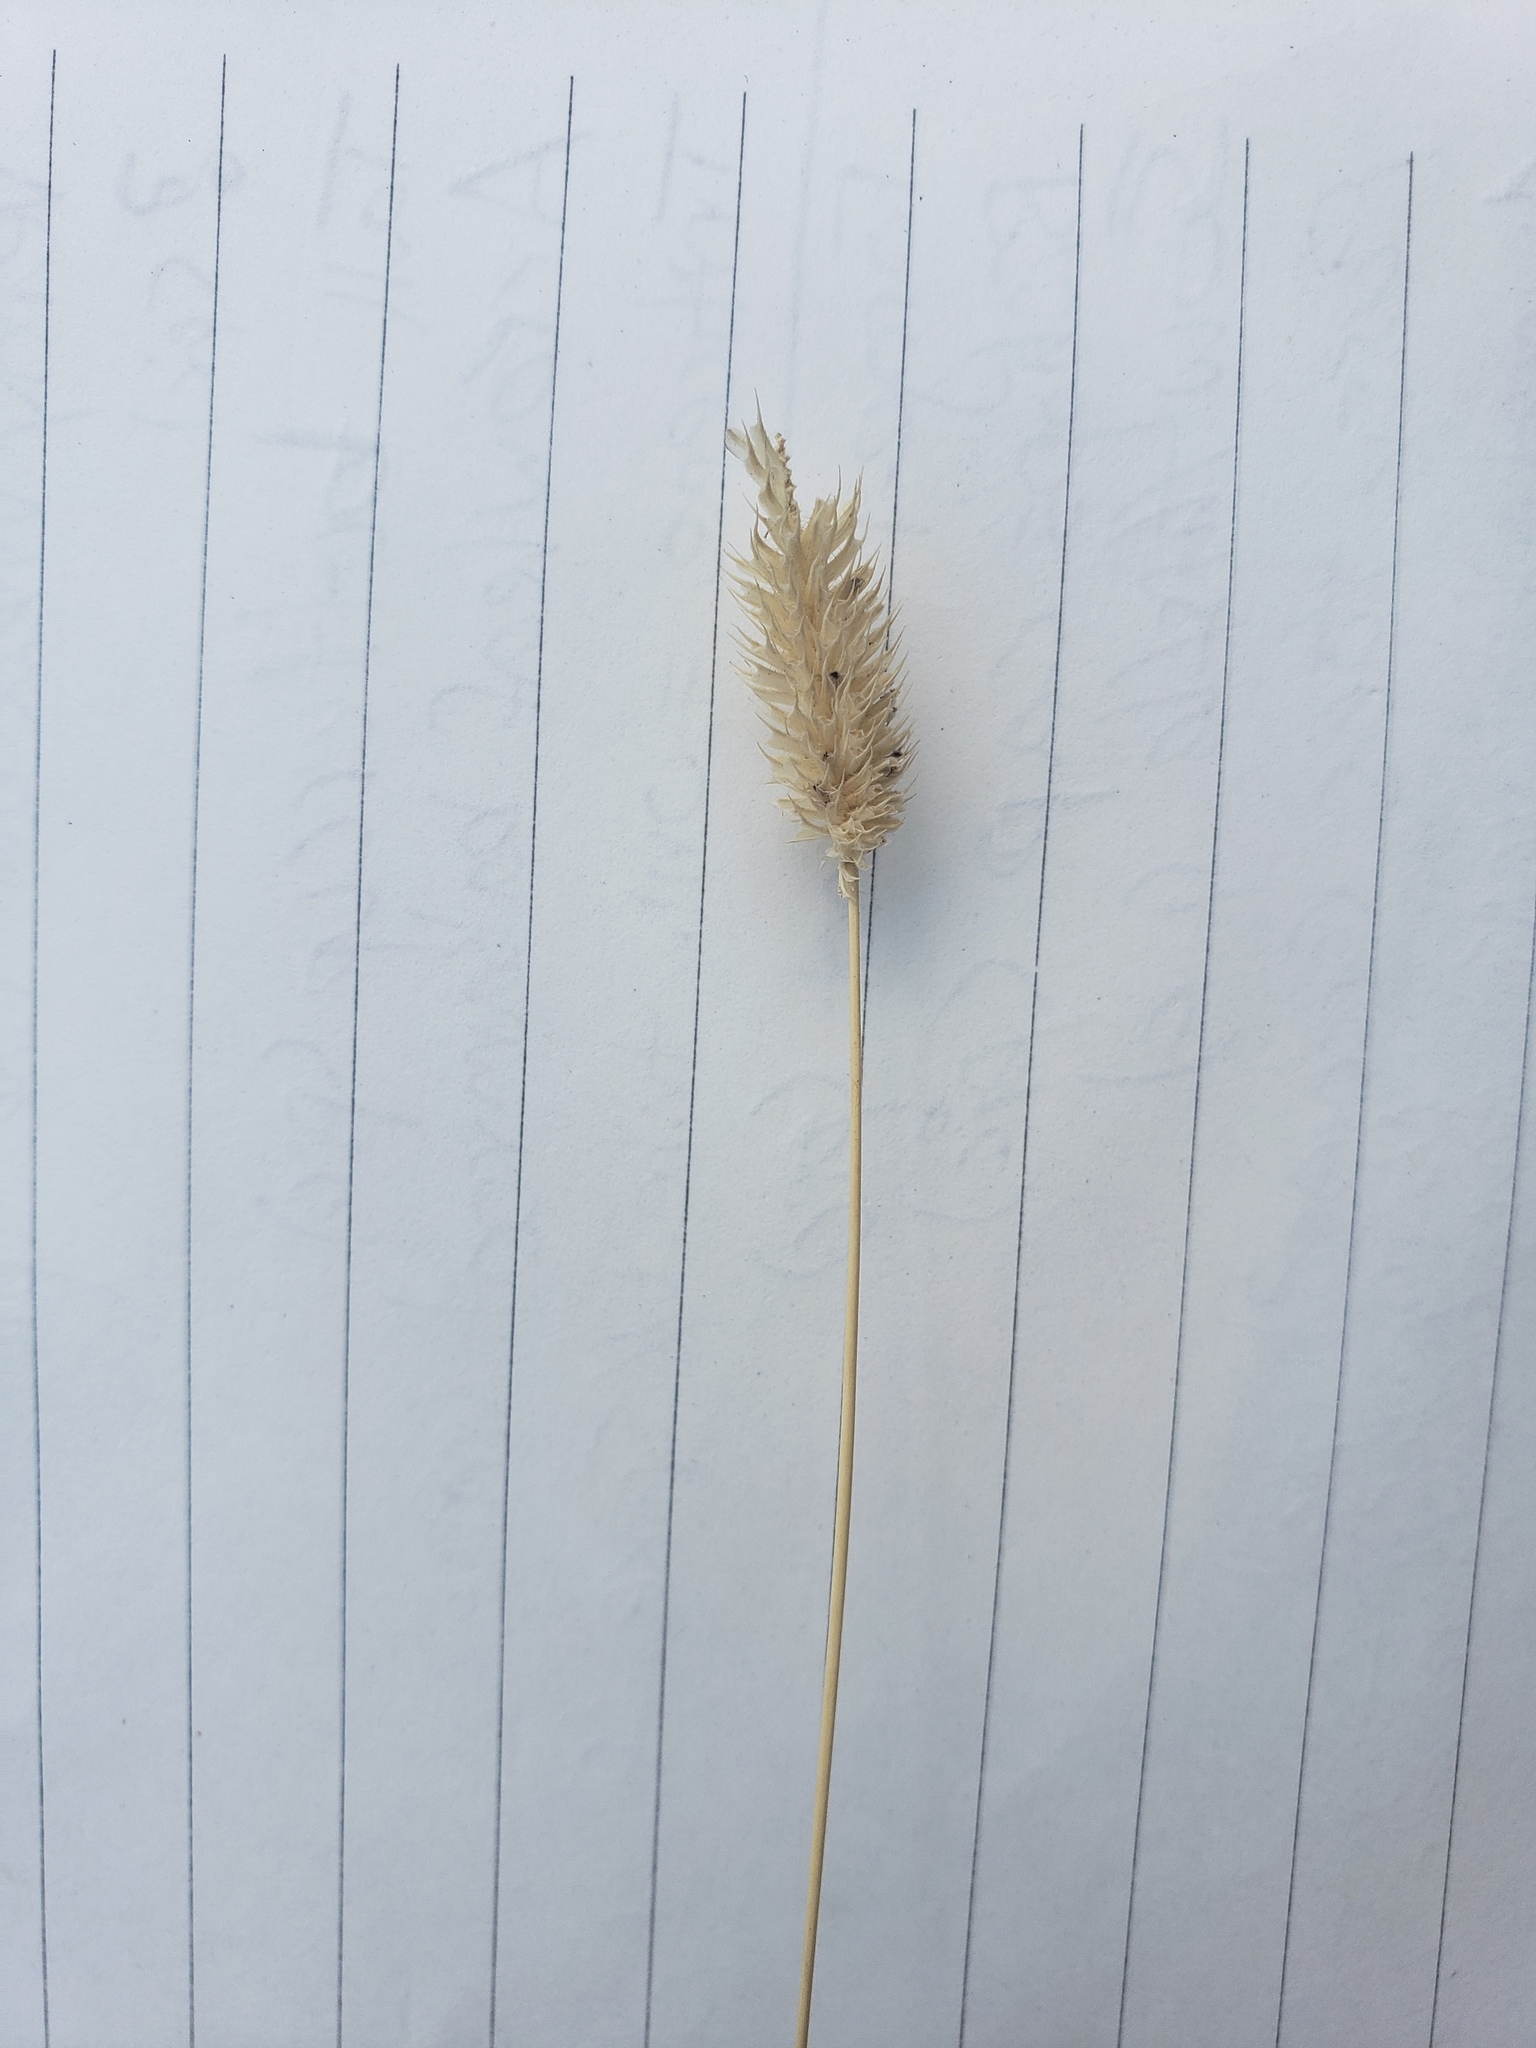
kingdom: Plantae
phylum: Tracheophyta
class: Liliopsida
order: Poales
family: Poaceae
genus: Phleum
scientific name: Phleum pratense
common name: Timothy grass
